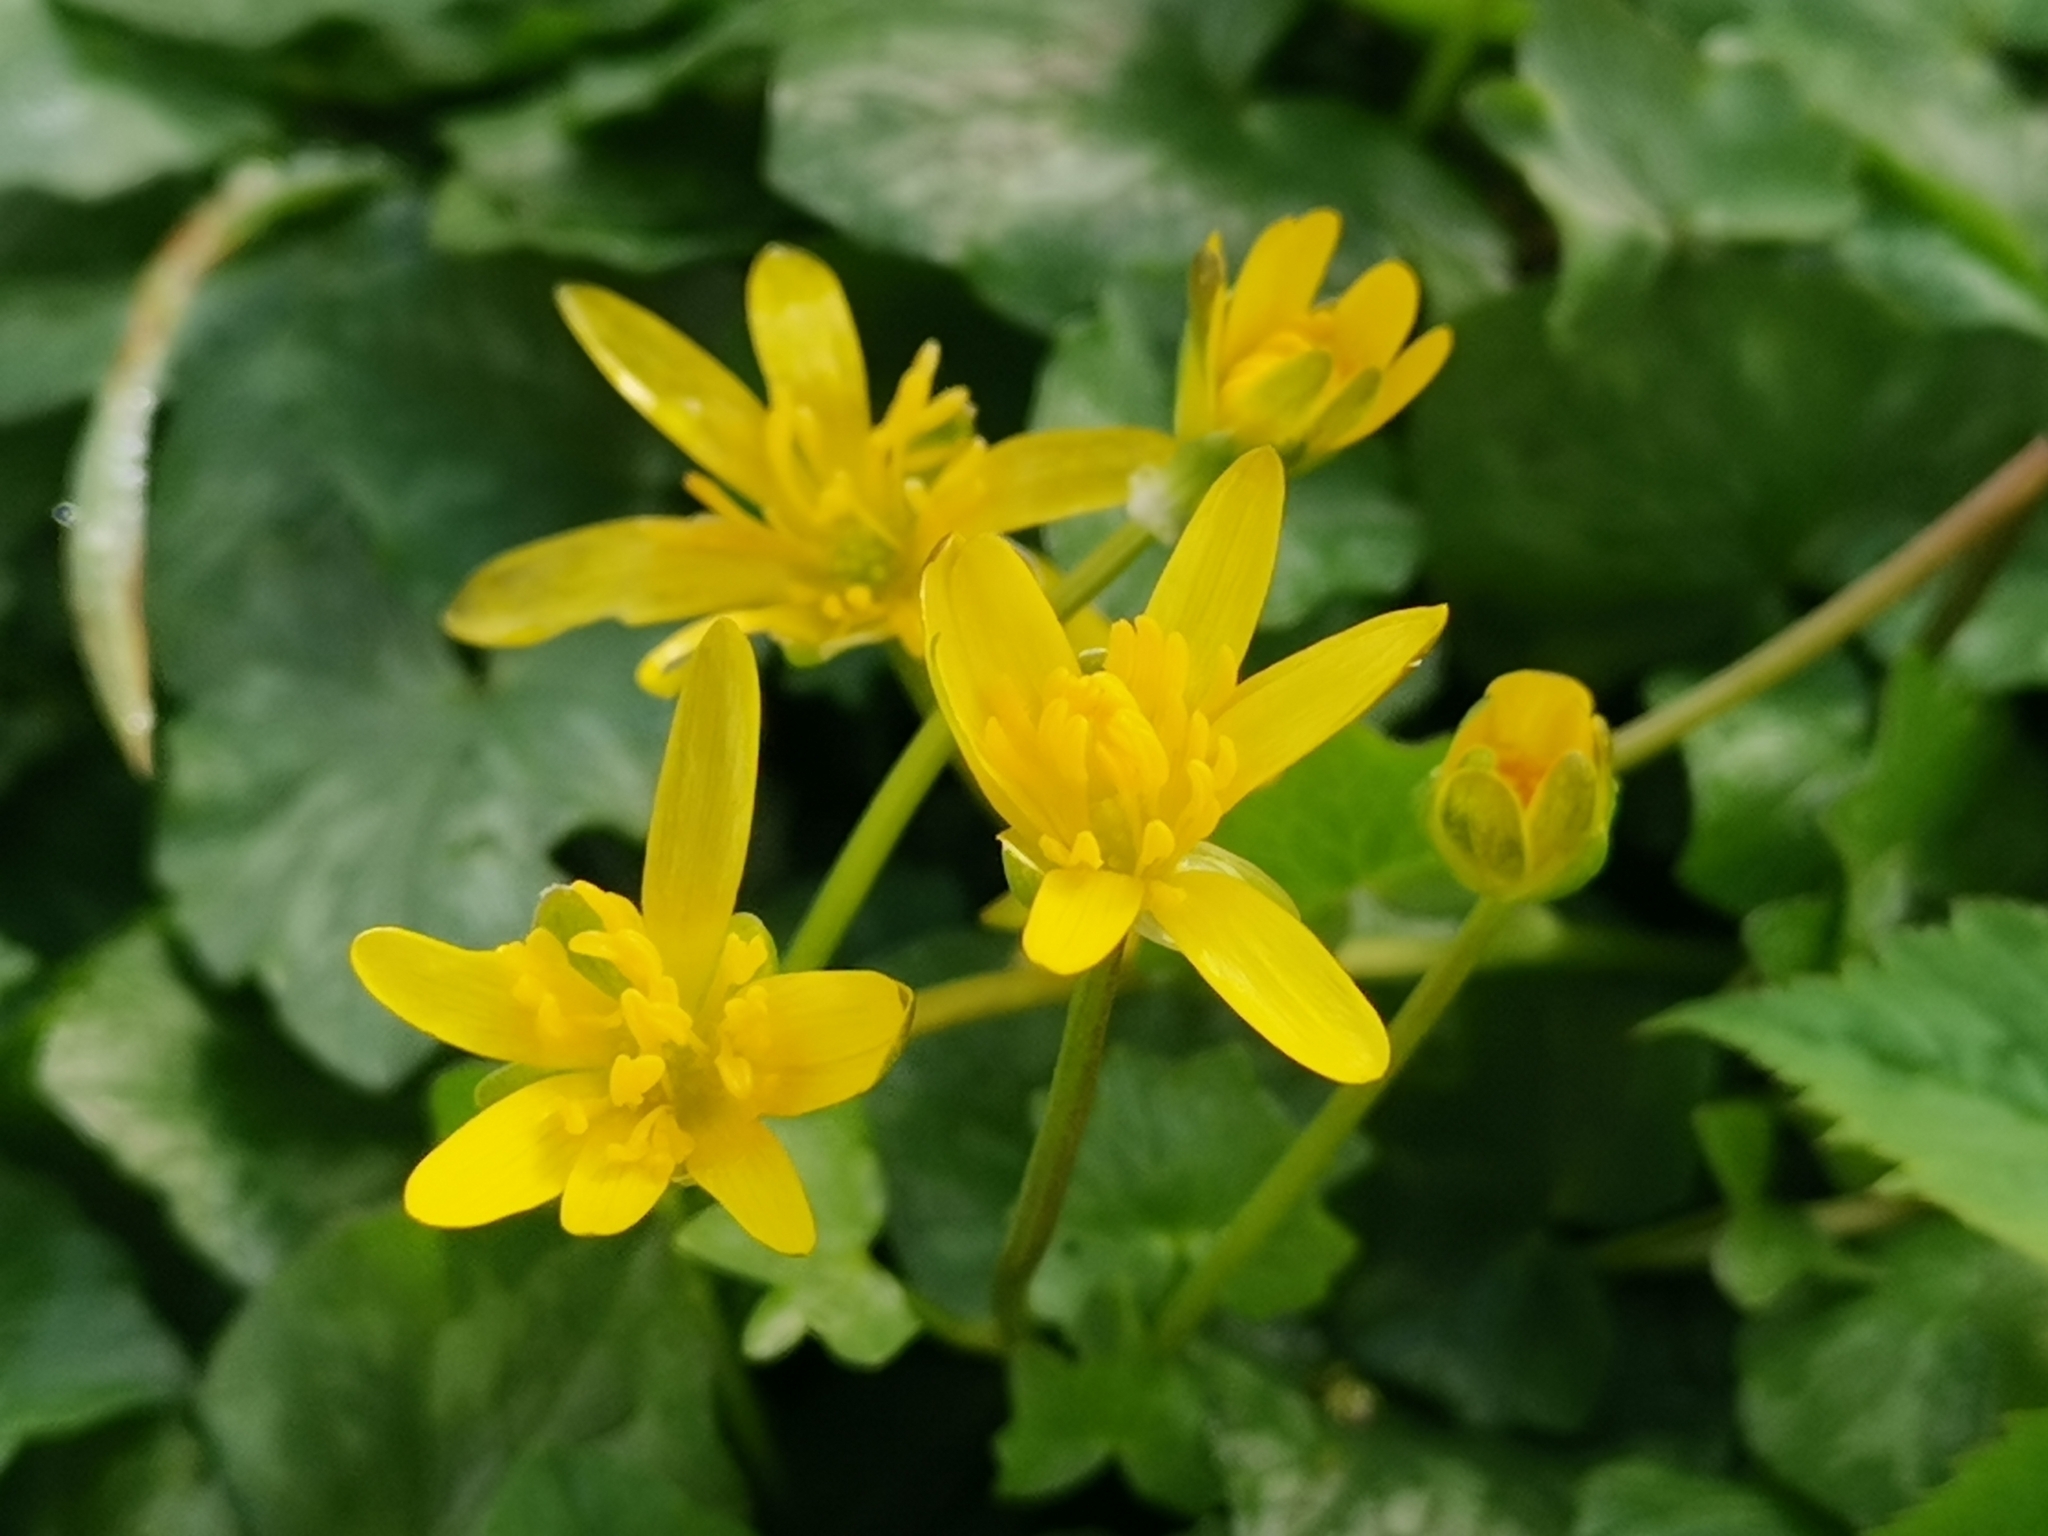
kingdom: Plantae
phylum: Tracheophyta
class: Magnoliopsida
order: Ranunculales
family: Ranunculaceae
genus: Ficaria
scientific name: Ficaria verna
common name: Lesser celandine
